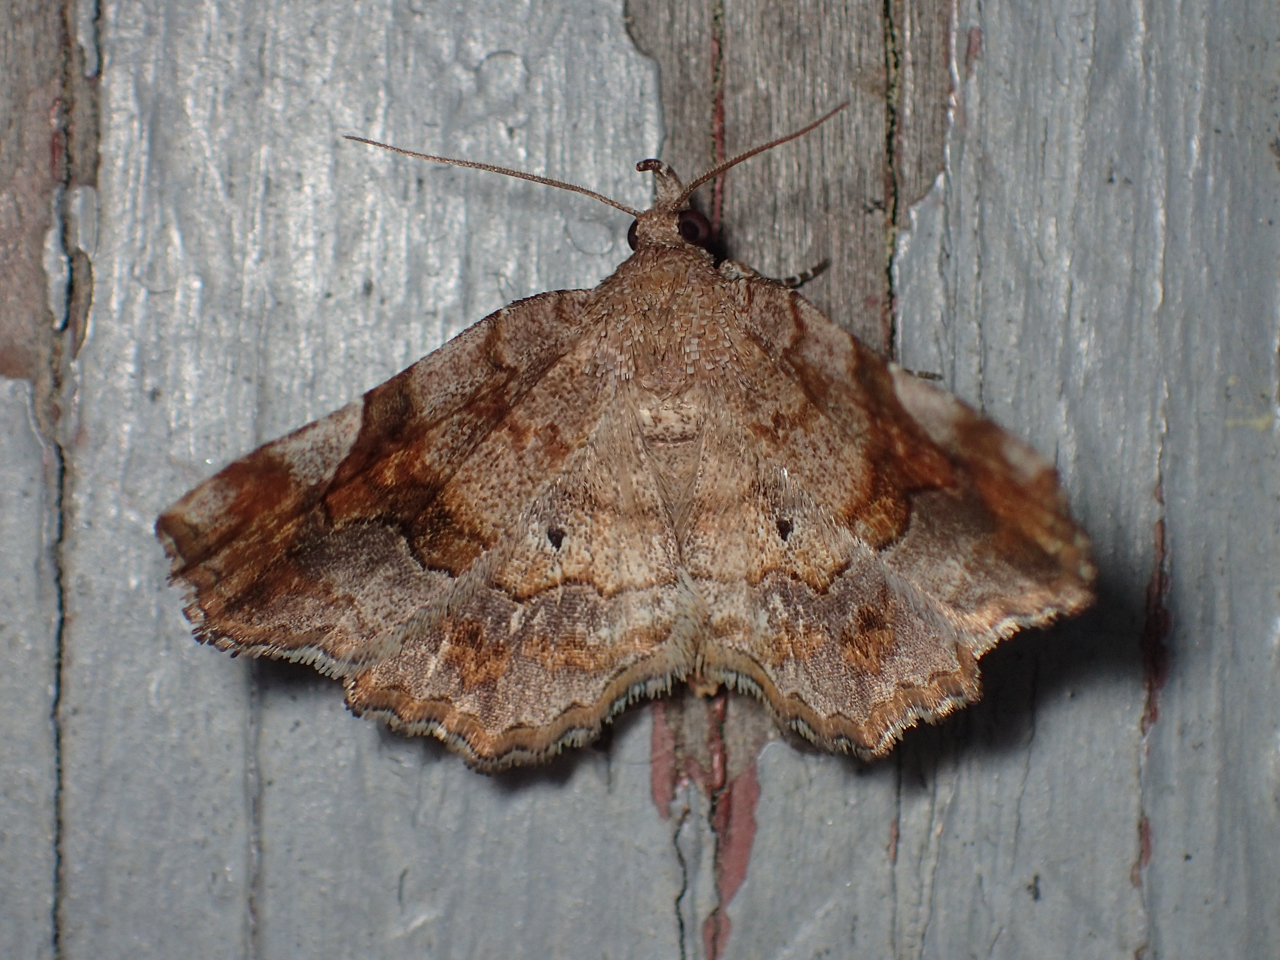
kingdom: Animalia
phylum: Arthropoda
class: Insecta
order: Lepidoptera
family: Erebidae
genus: Pangrapta
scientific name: Pangrapta decoralis
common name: Decorated owlet
